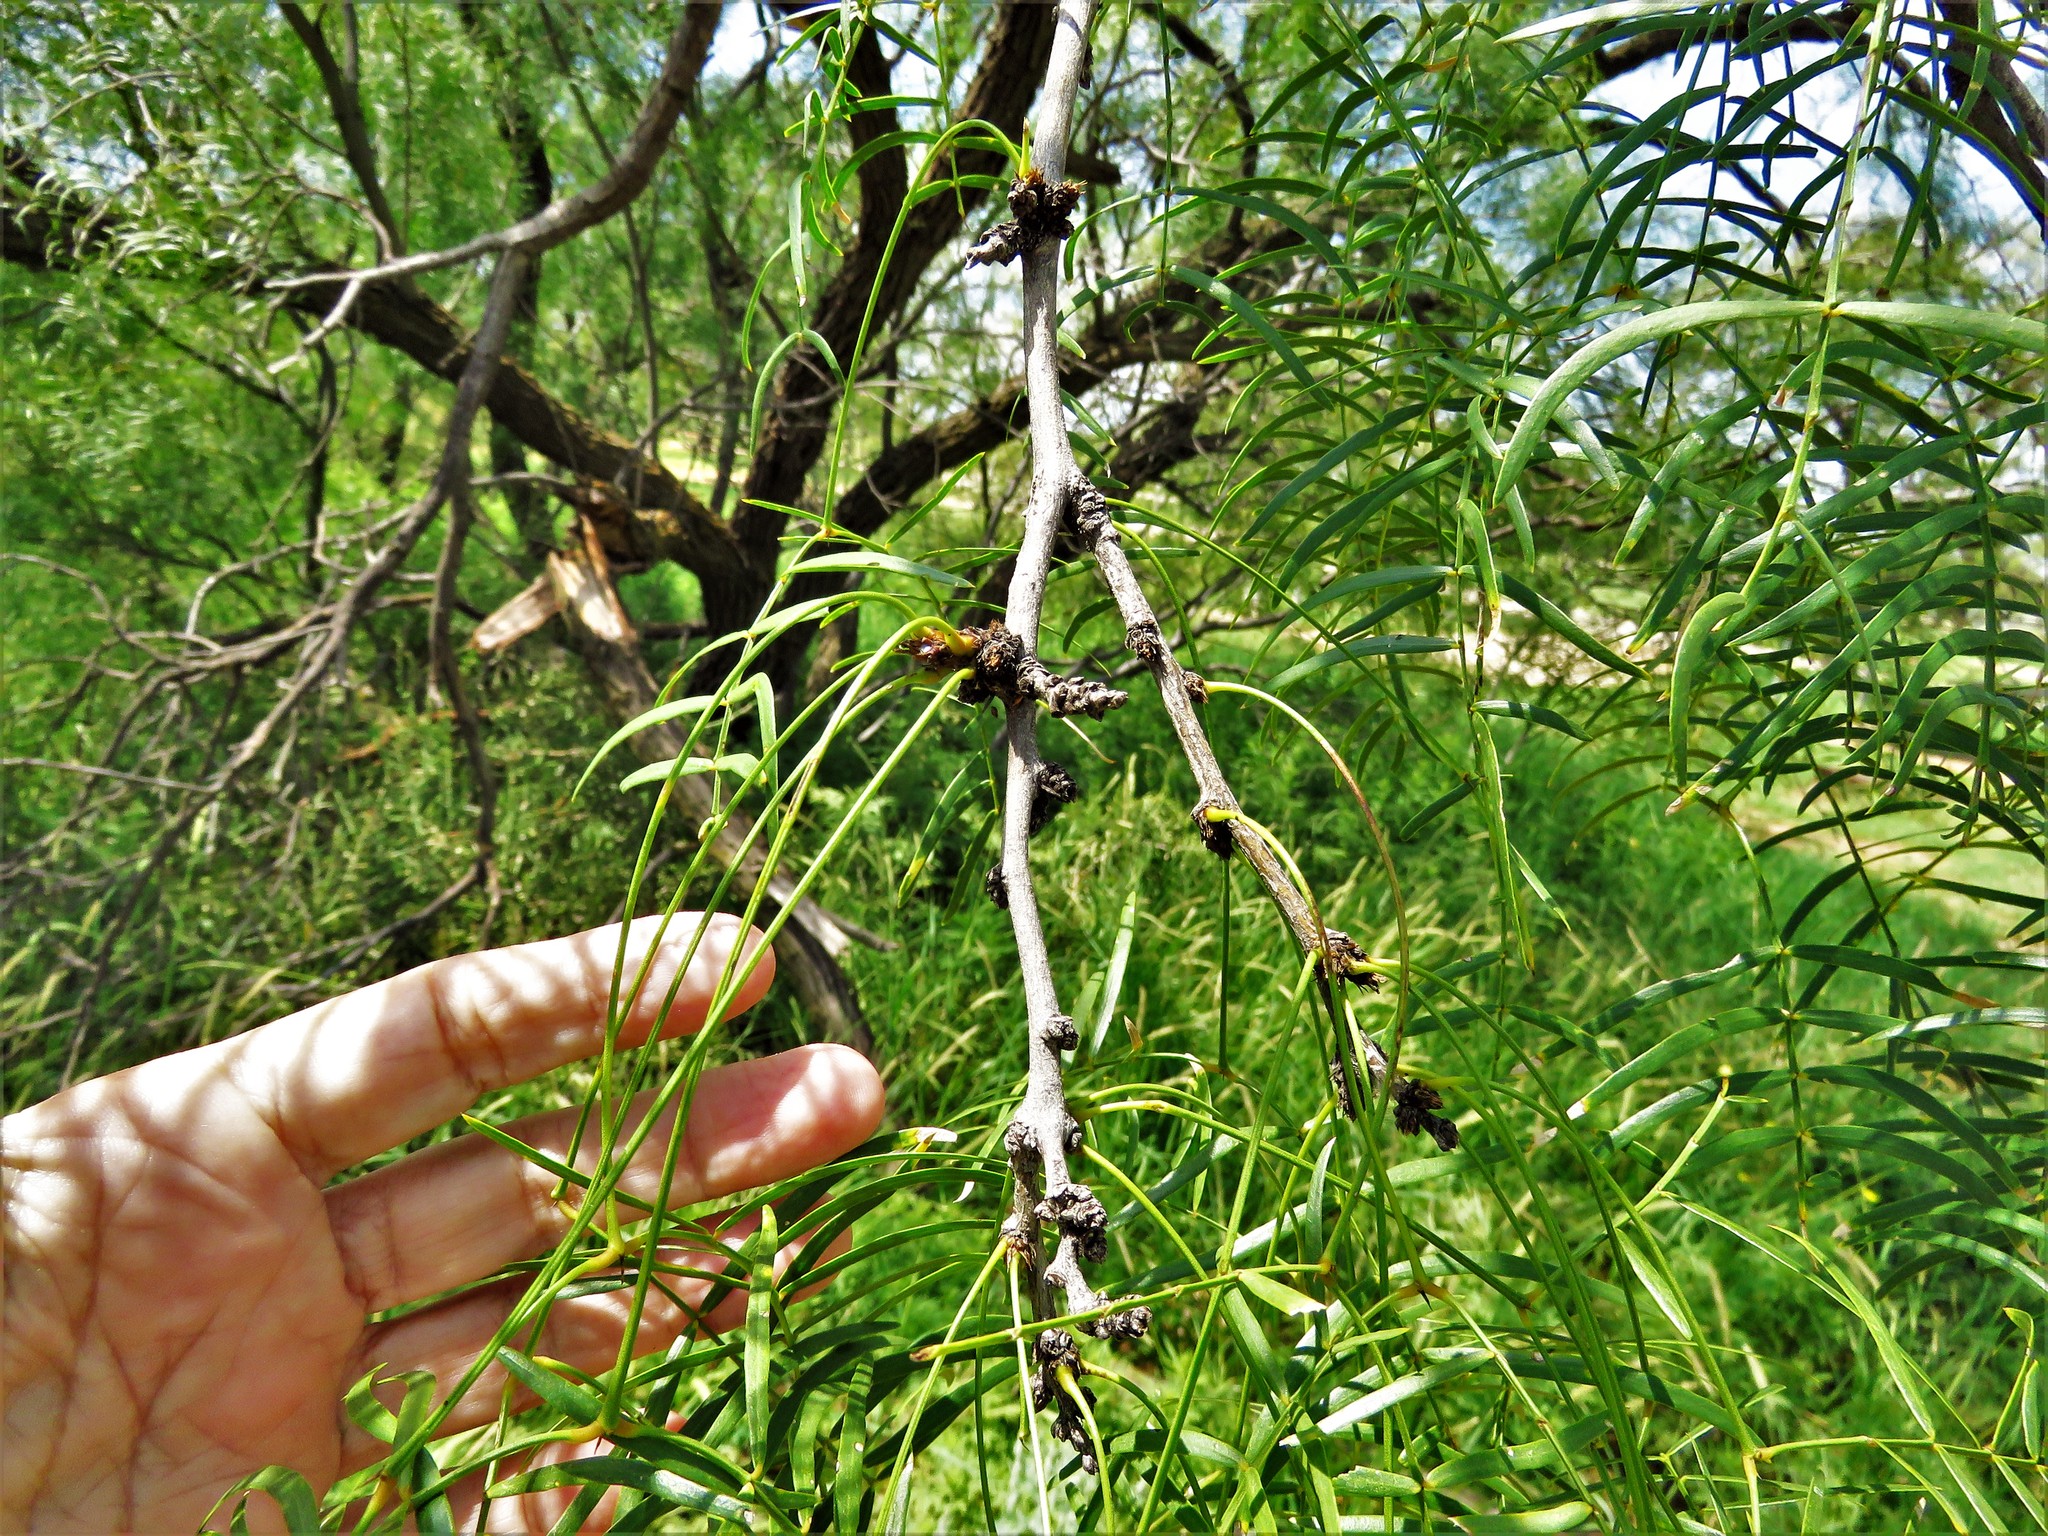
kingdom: Plantae
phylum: Tracheophyta
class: Magnoliopsida
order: Fabales
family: Fabaceae
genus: Prosopis
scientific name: Prosopis glandulosa
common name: Honey mesquite
